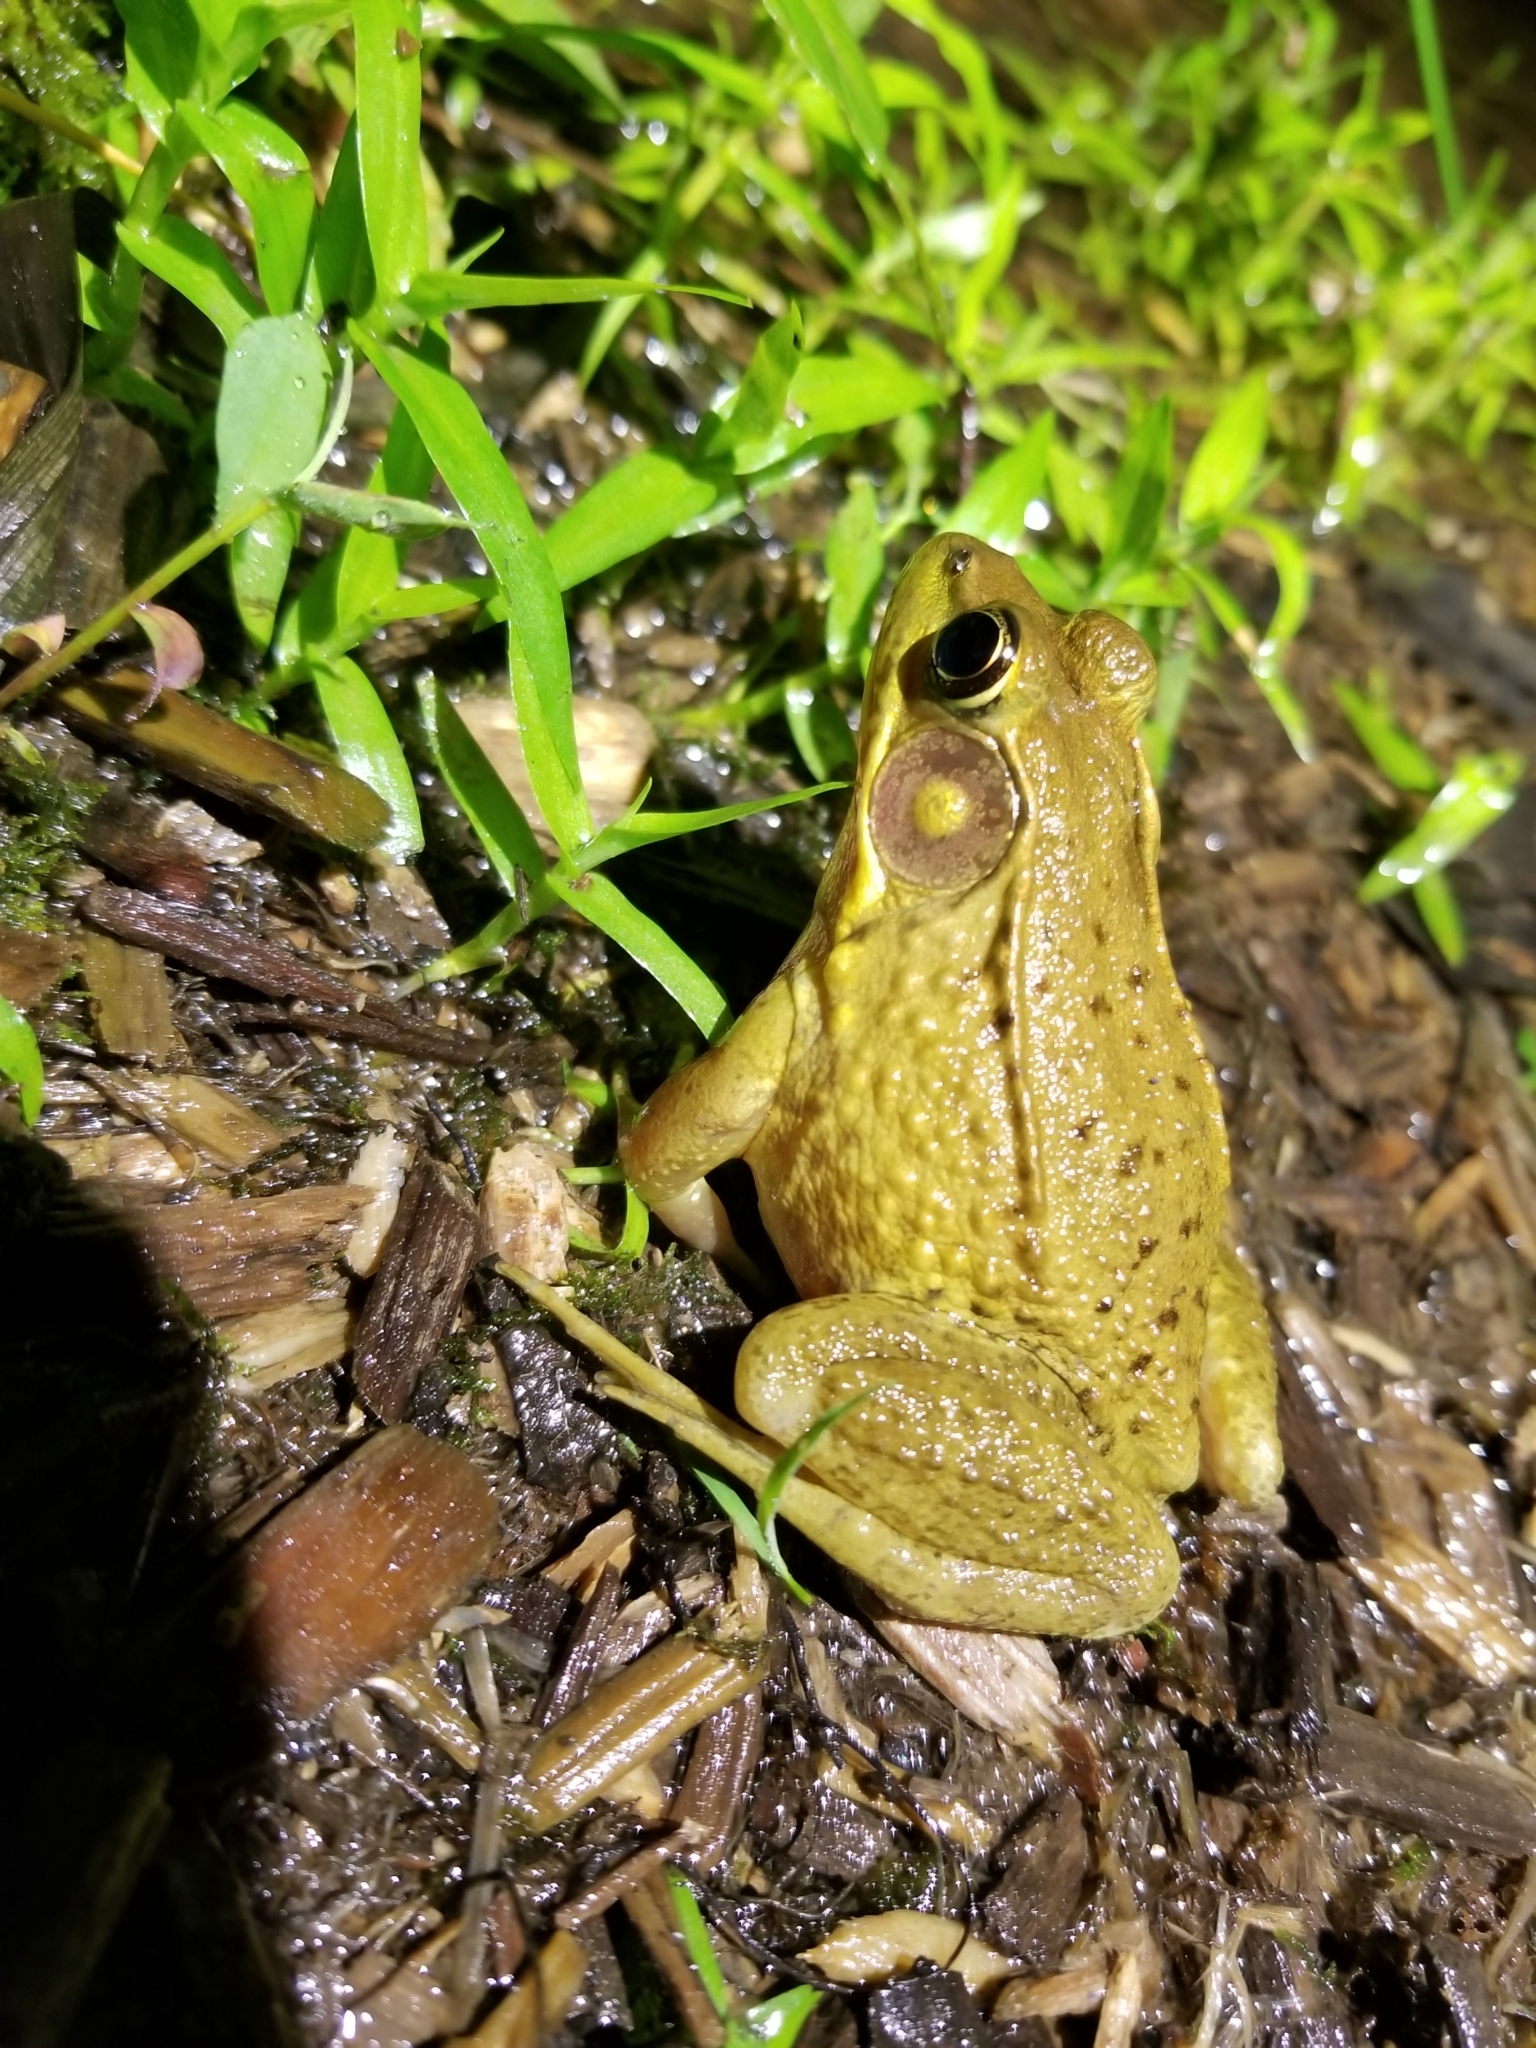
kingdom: Animalia
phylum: Chordata
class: Amphibia
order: Anura
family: Ranidae
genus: Lithobates
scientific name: Lithobates clamitans
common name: Green frog
